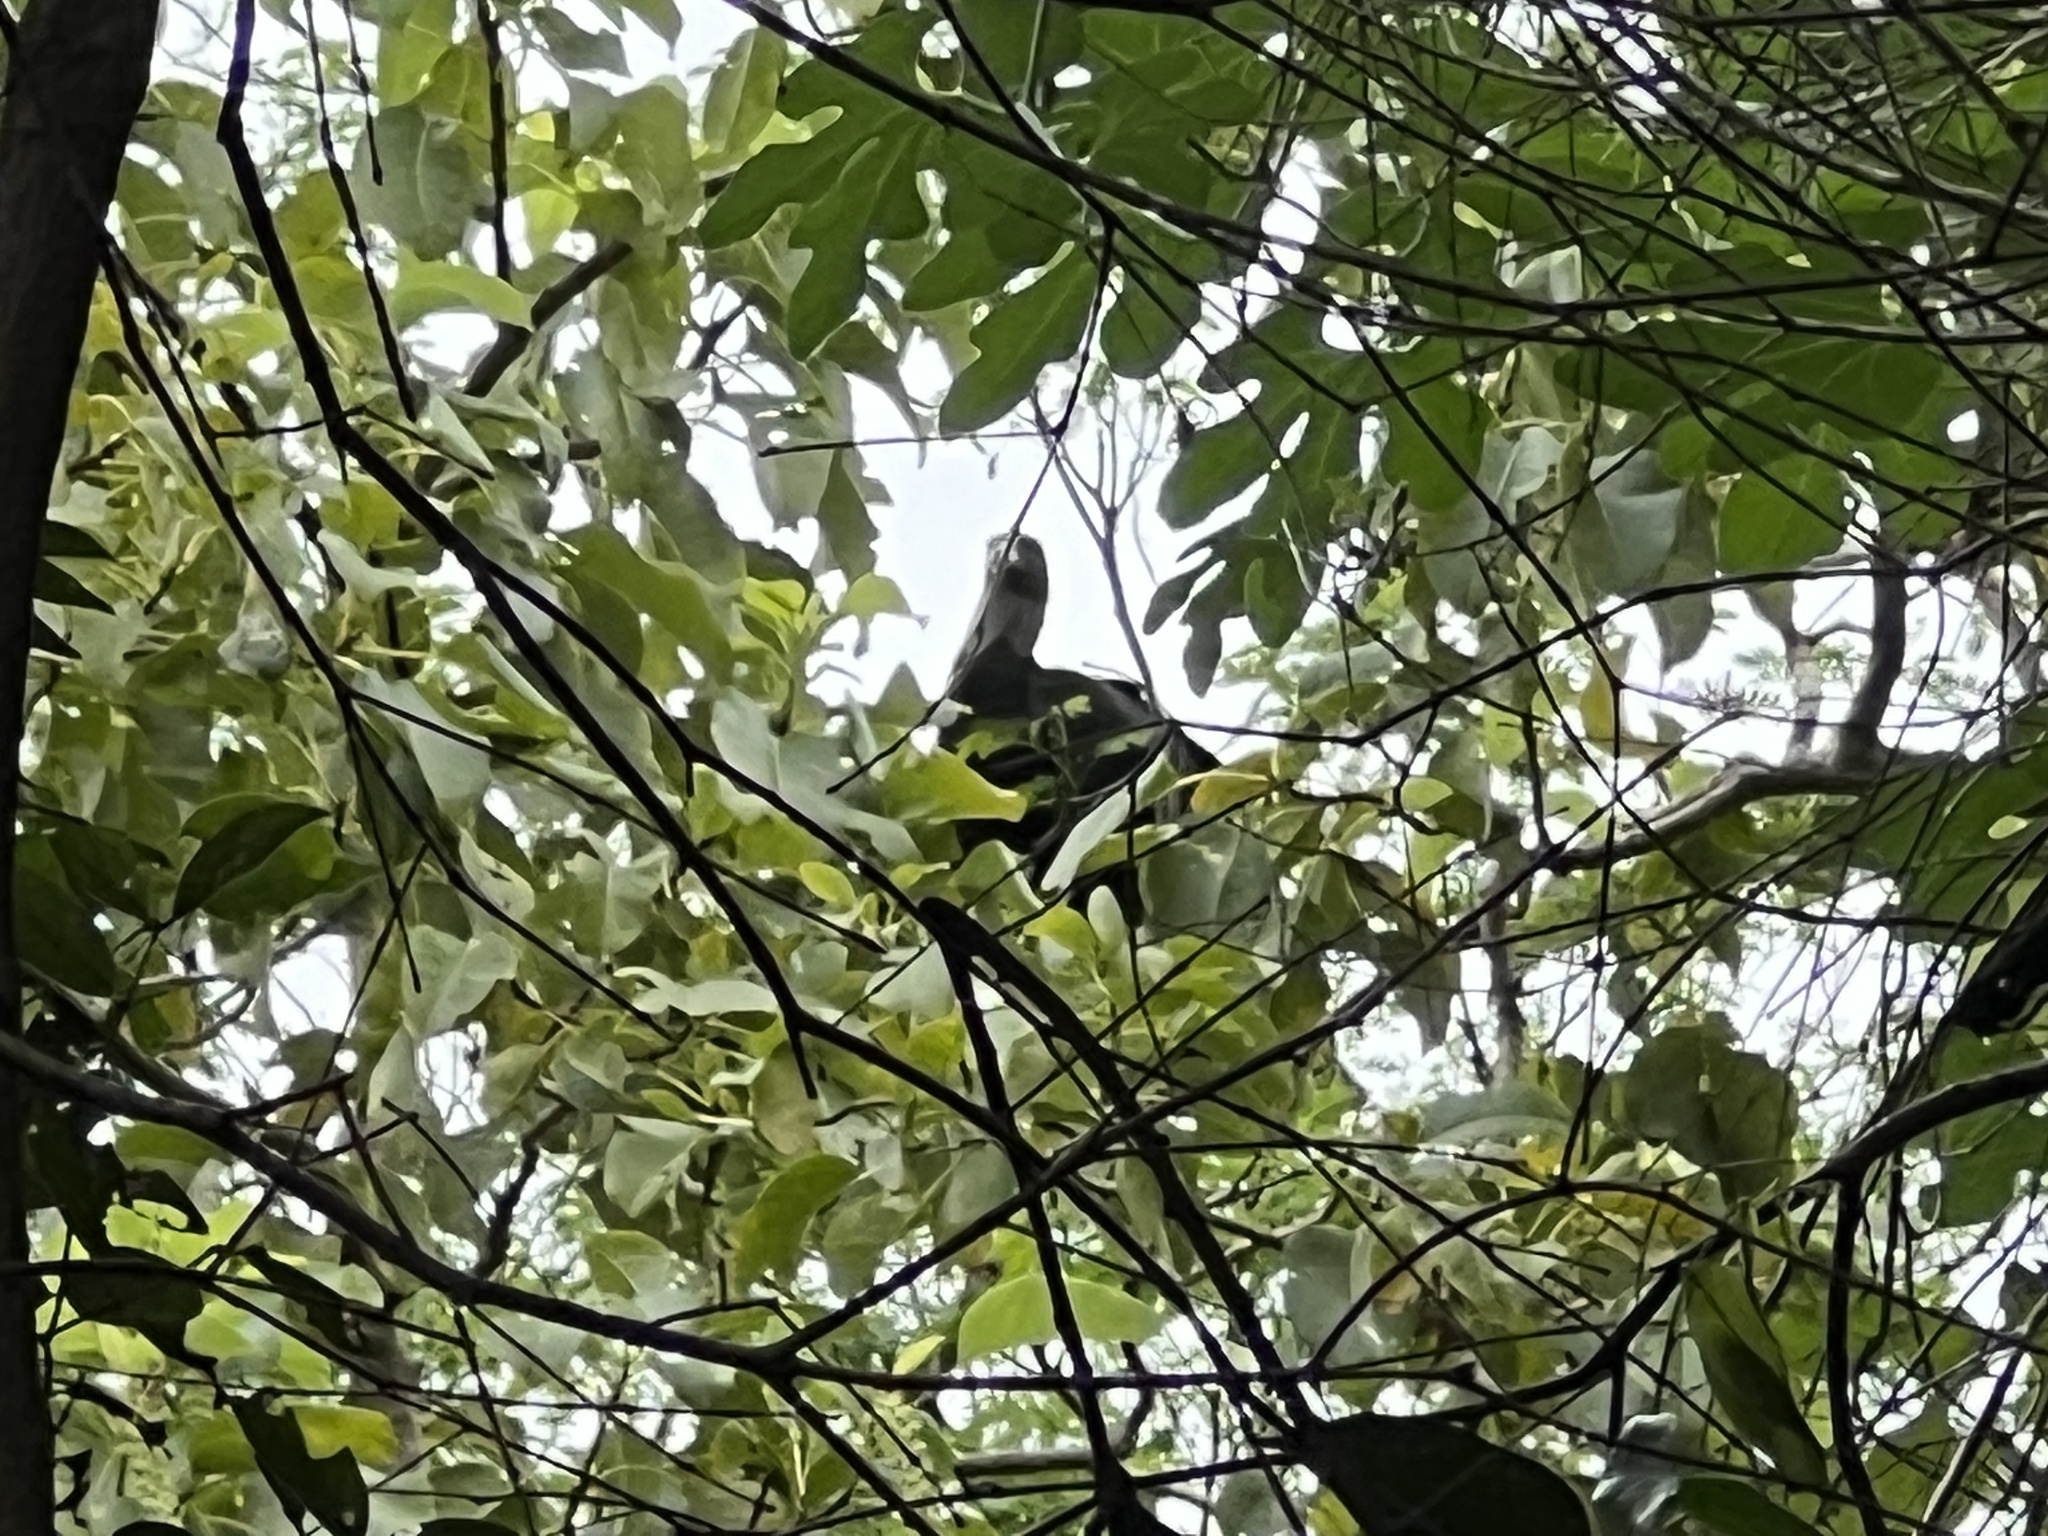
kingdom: Animalia
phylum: Chordata
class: Aves
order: Accipitriformes
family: Cathartidae
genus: Coragyps
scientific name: Coragyps atratus
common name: Black vulture
